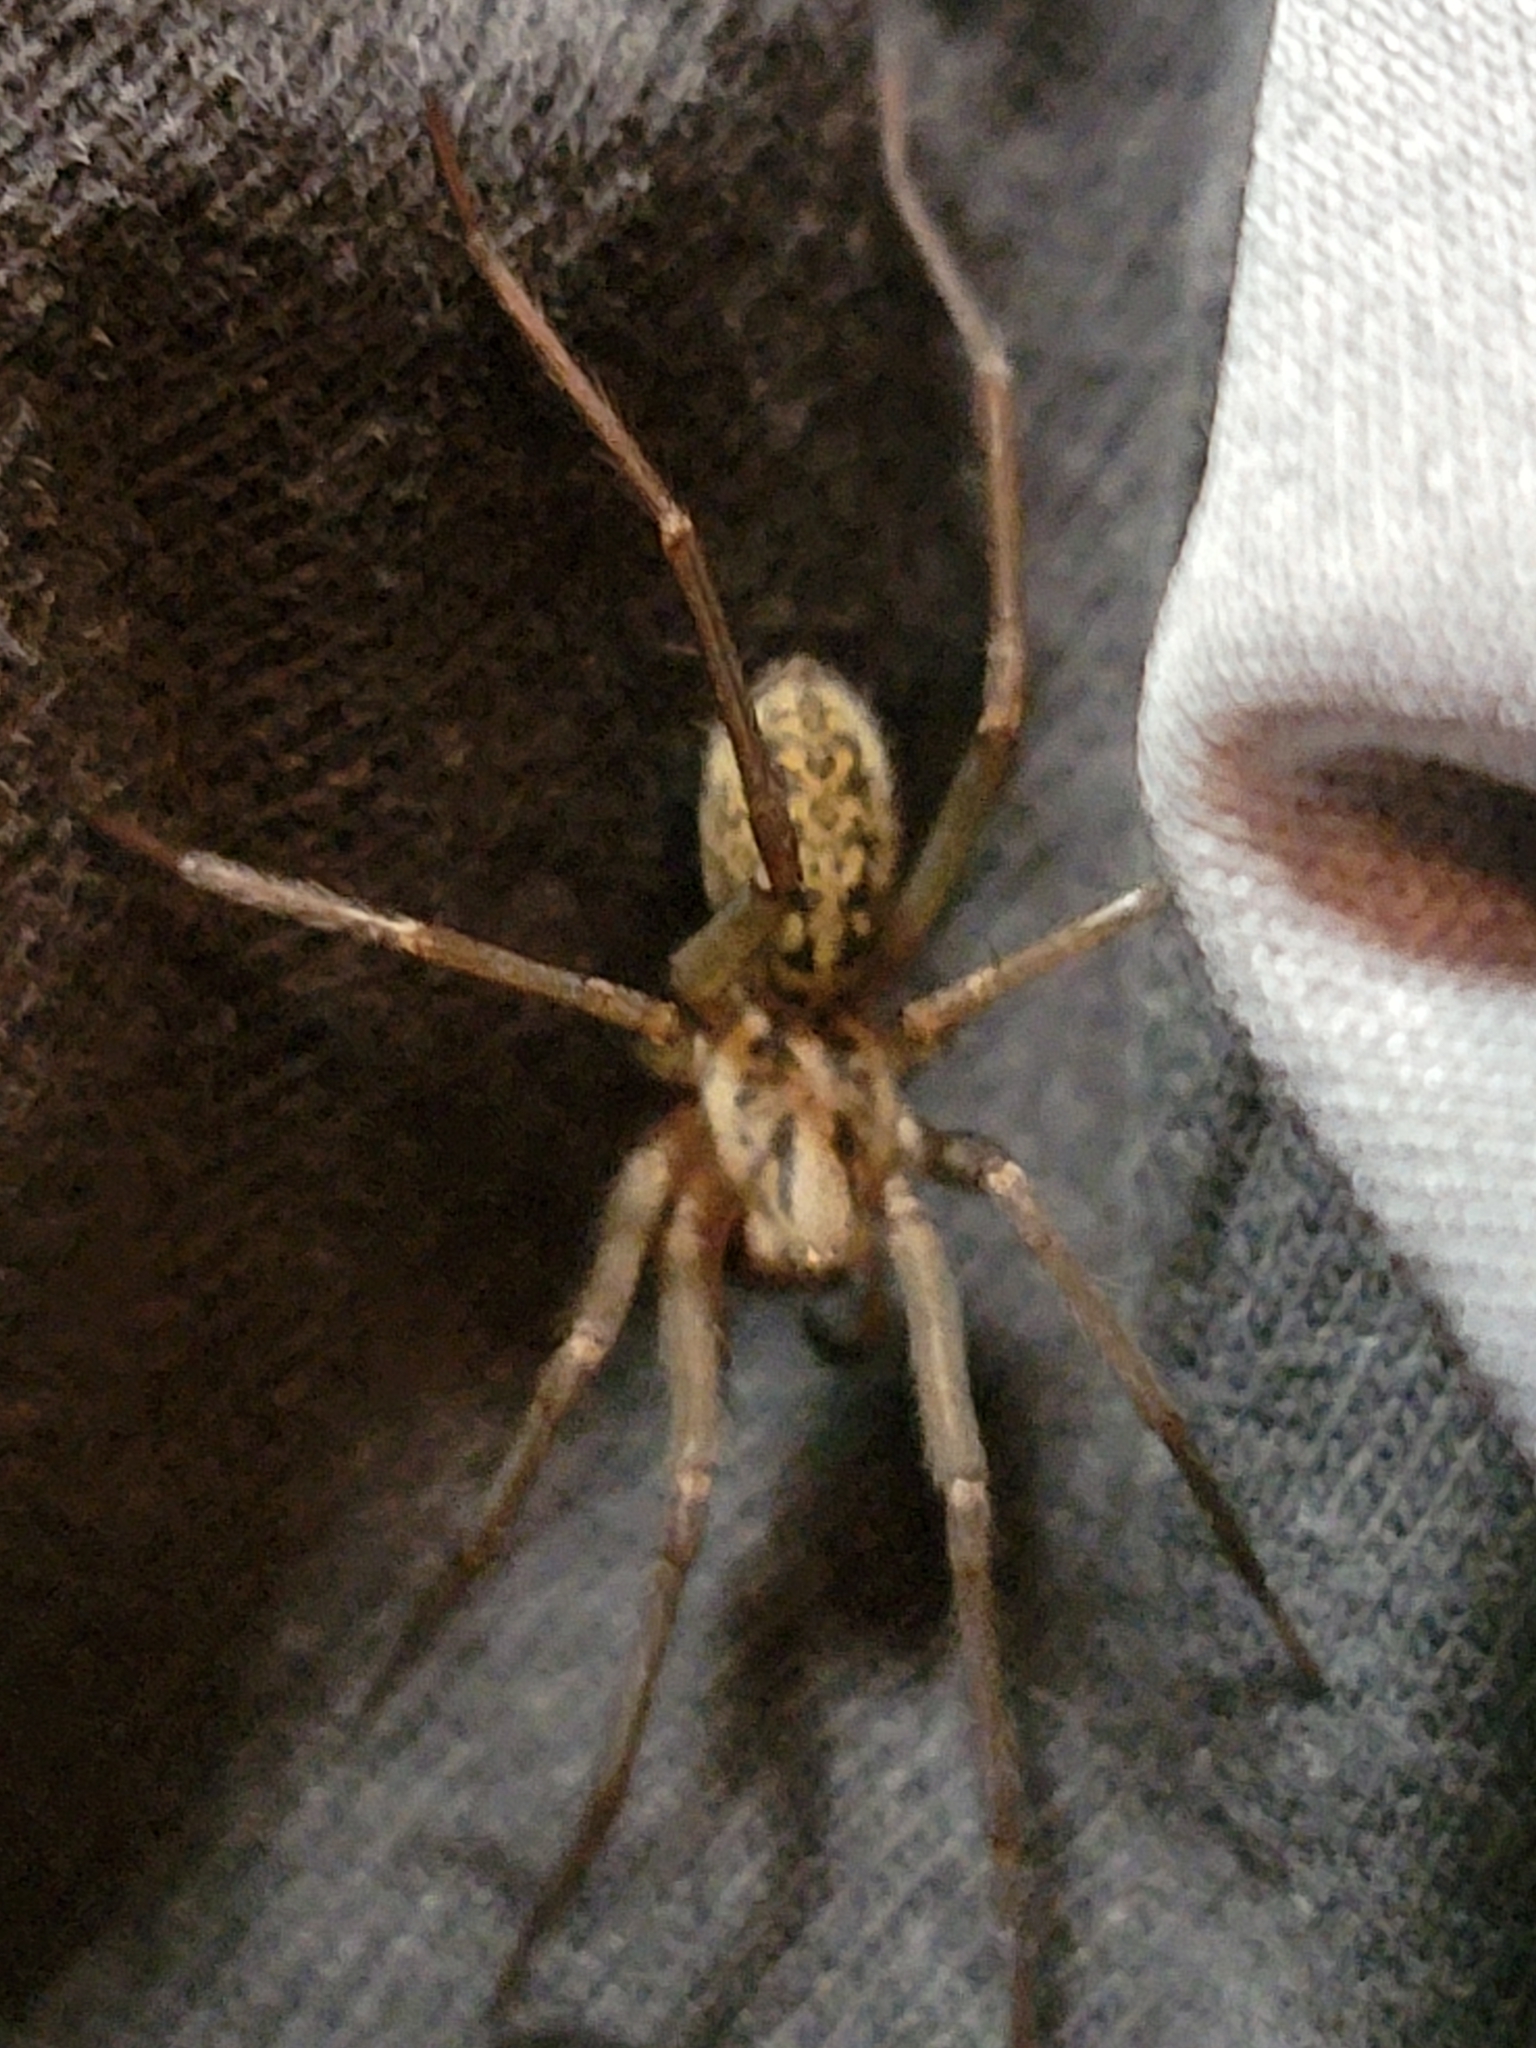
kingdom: Animalia
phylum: Arthropoda
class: Arachnida
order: Araneae
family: Agelenidae
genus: Eratigena
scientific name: Eratigena duellica
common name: Giant house spider
